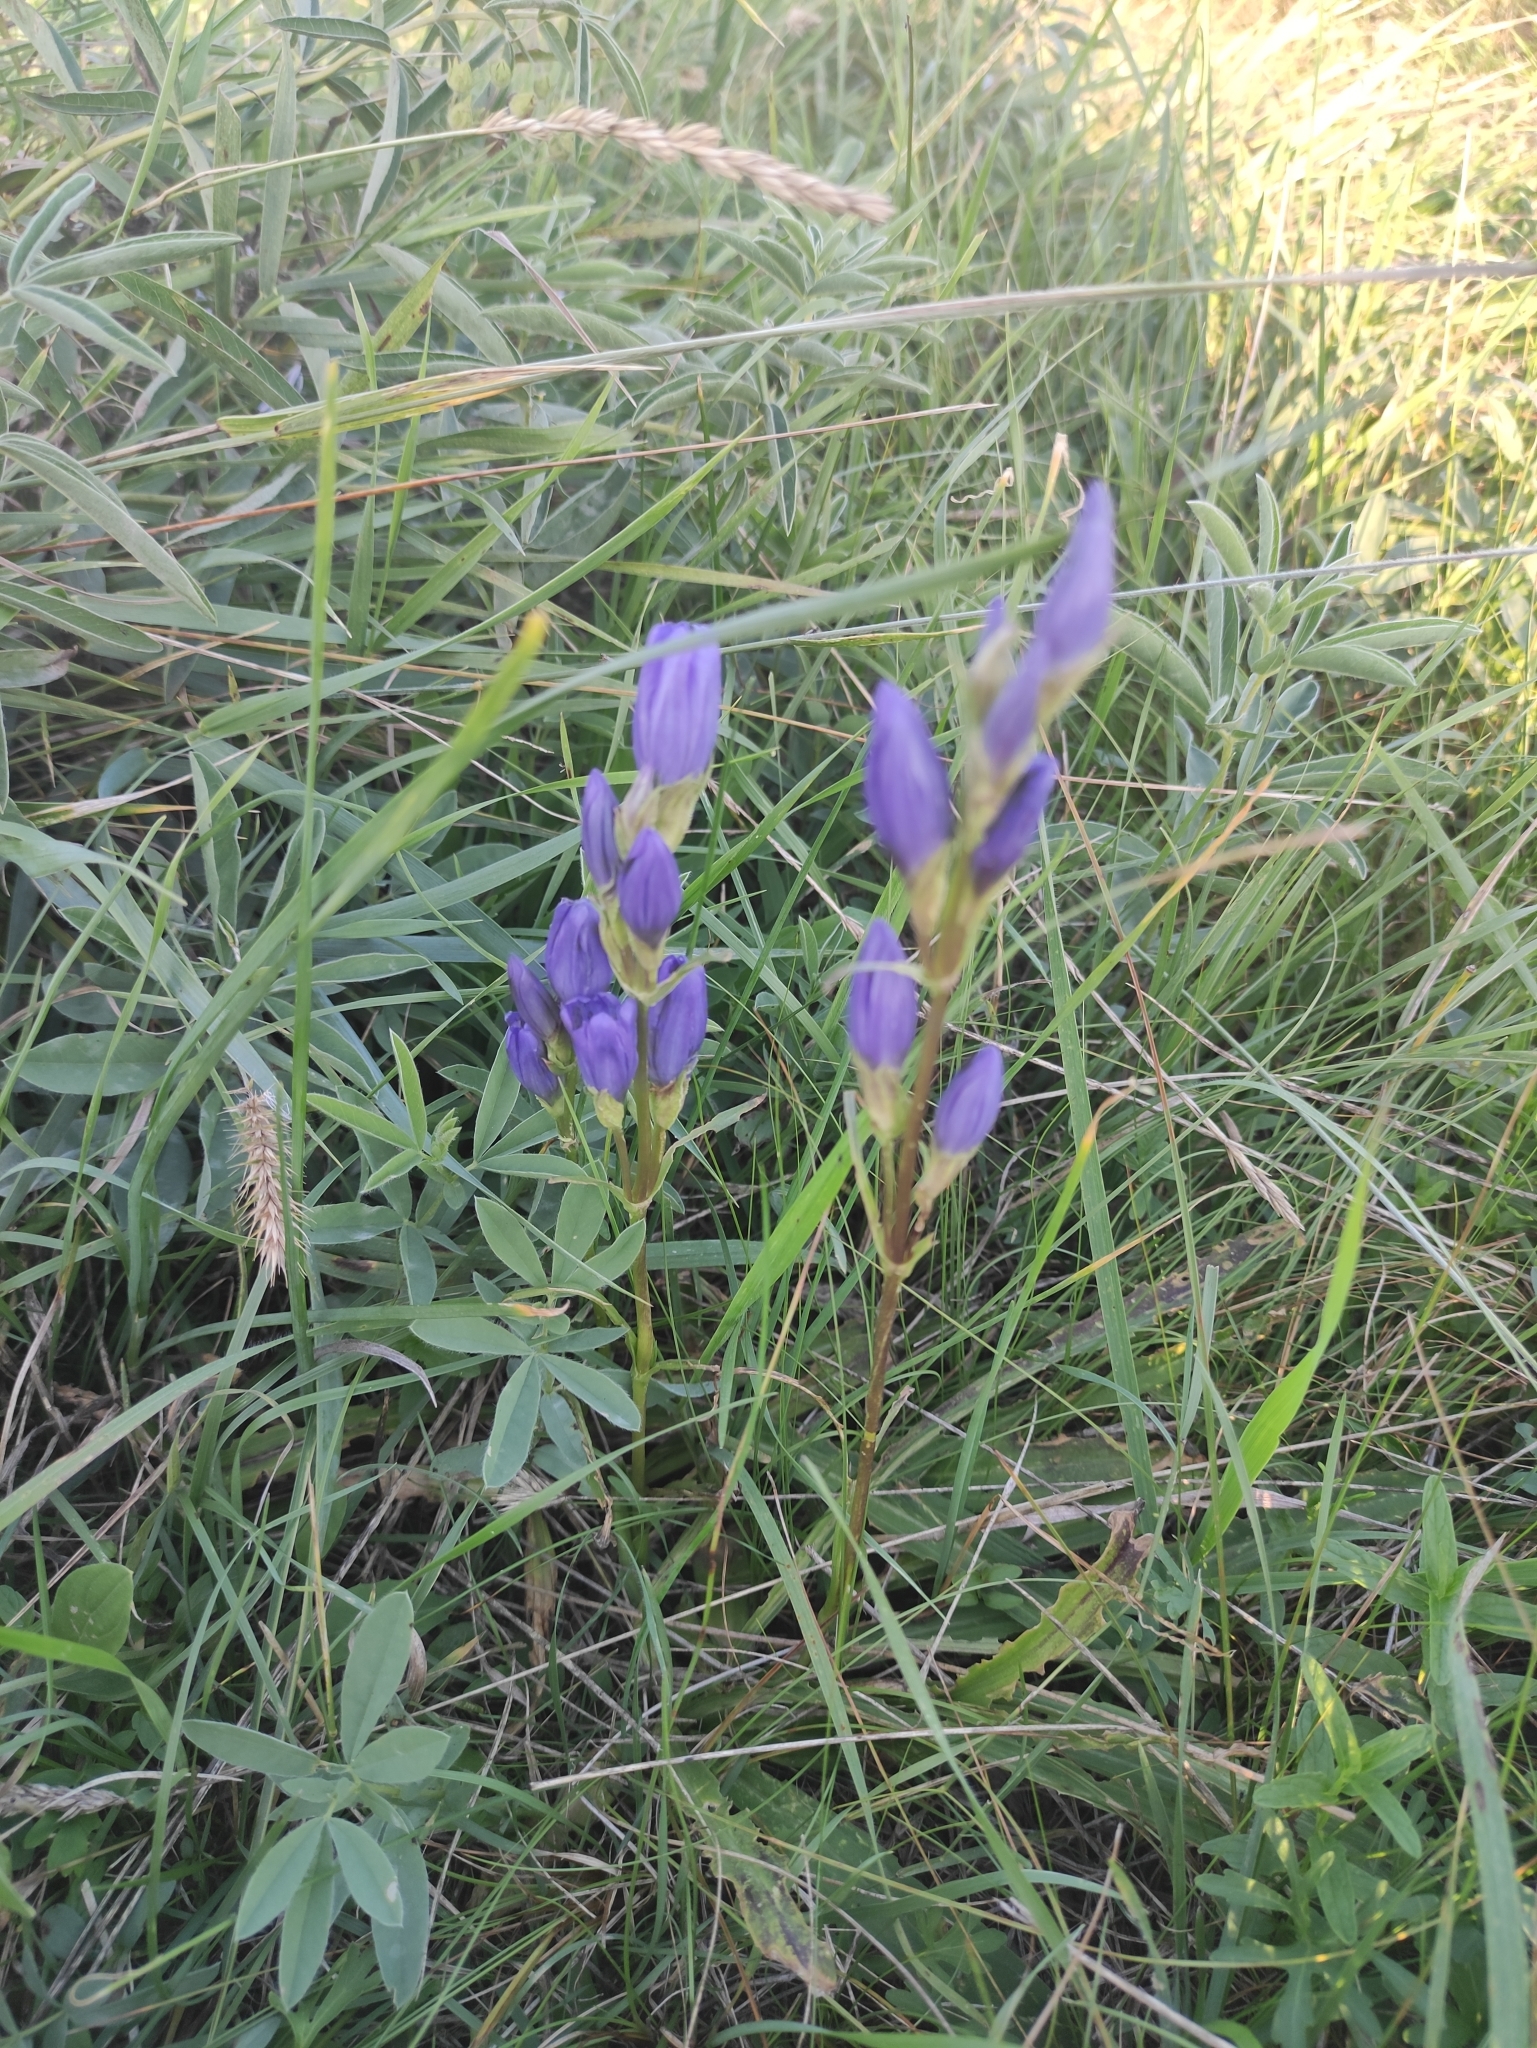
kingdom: Plantae
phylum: Tracheophyta
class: Magnoliopsida
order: Gentianales
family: Gentianaceae
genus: Gentiana
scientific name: Gentiana decumbens
